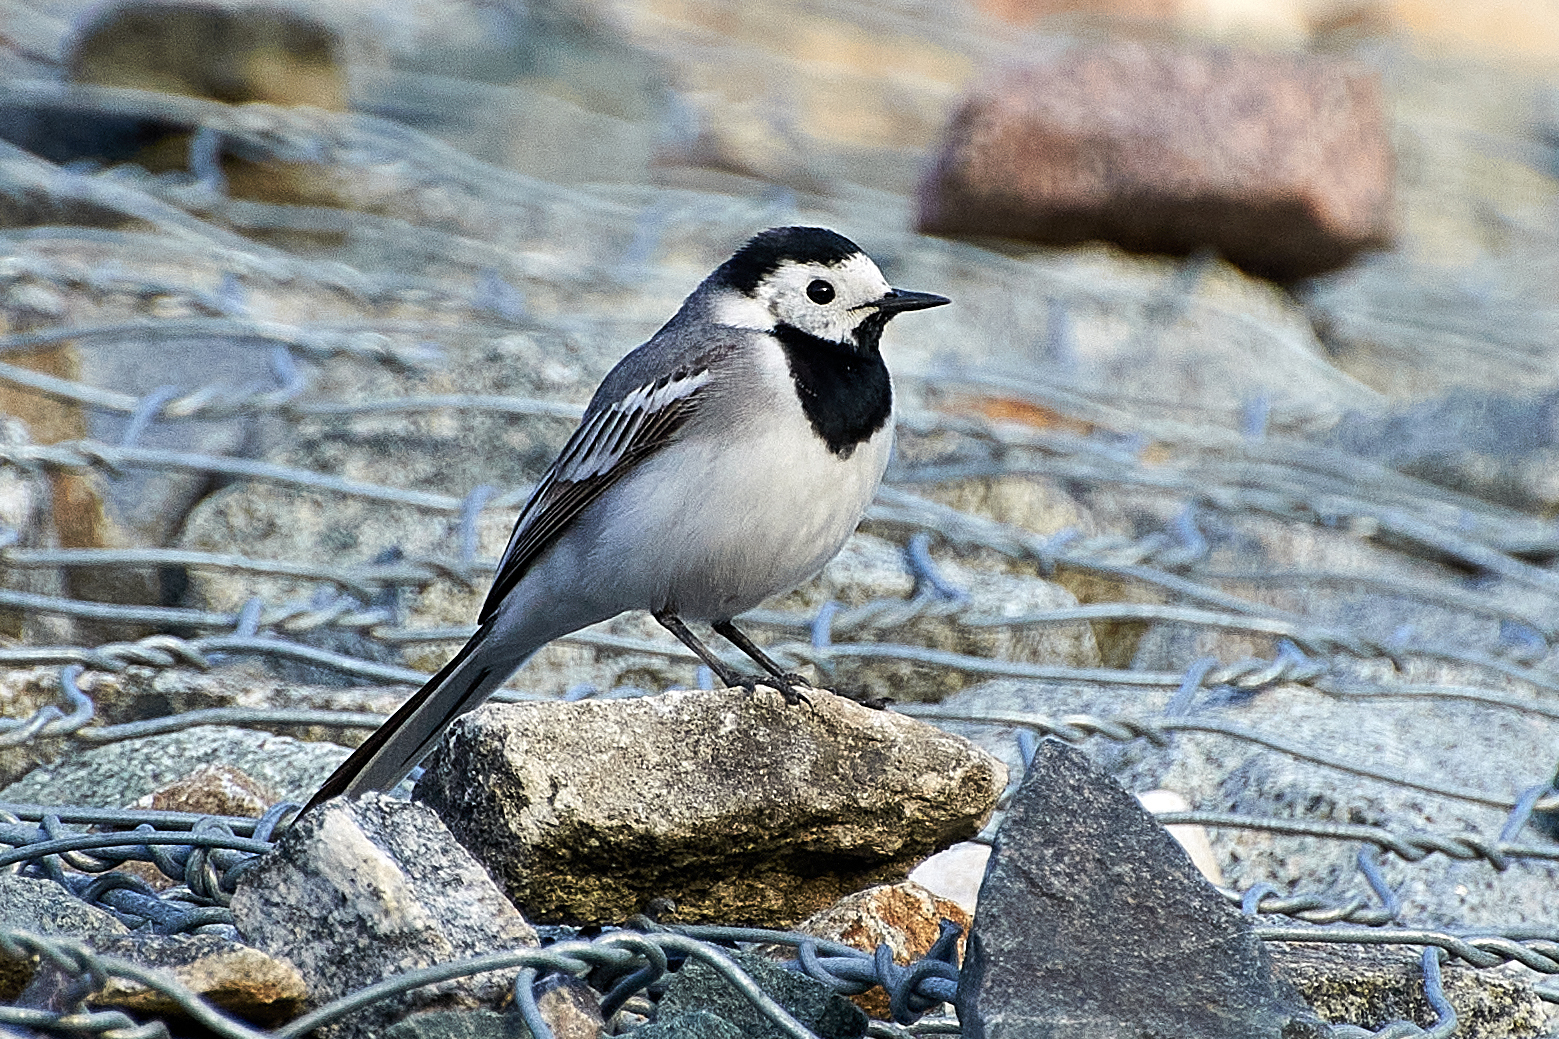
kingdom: Animalia
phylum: Chordata
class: Aves
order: Passeriformes
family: Motacillidae
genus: Motacilla
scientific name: Motacilla alba
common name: White wagtail
